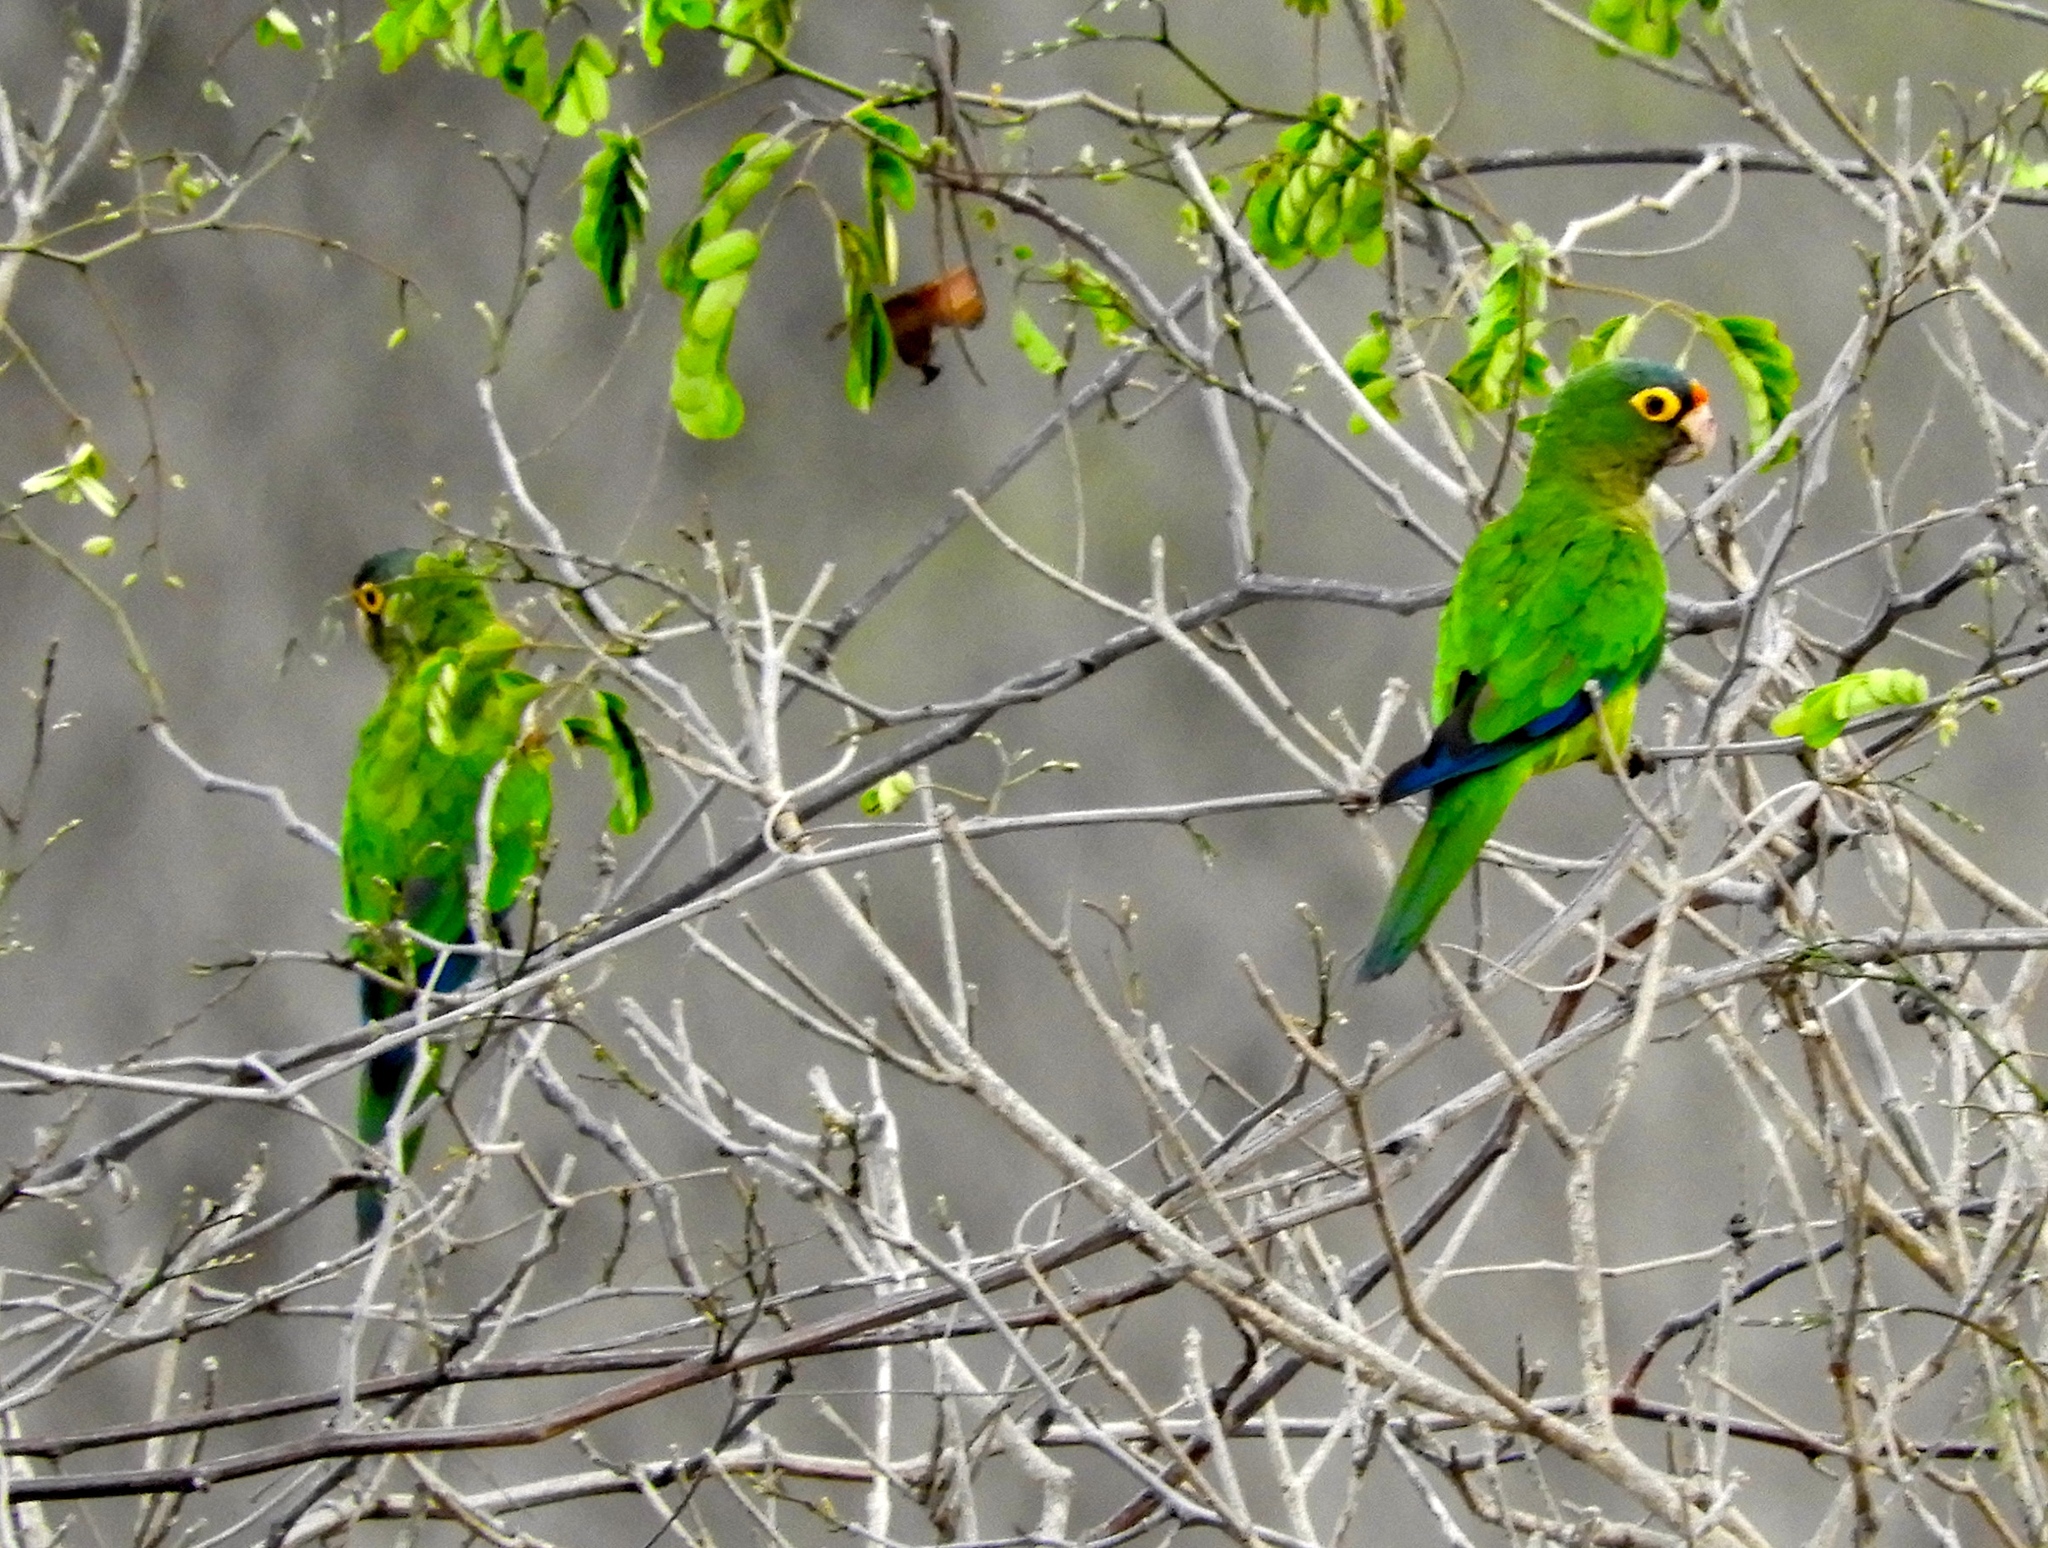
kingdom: Animalia
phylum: Chordata
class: Aves
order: Psittaciformes
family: Psittacidae
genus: Aratinga
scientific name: Aratinga canicularis
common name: Orange-fronted parakeet
